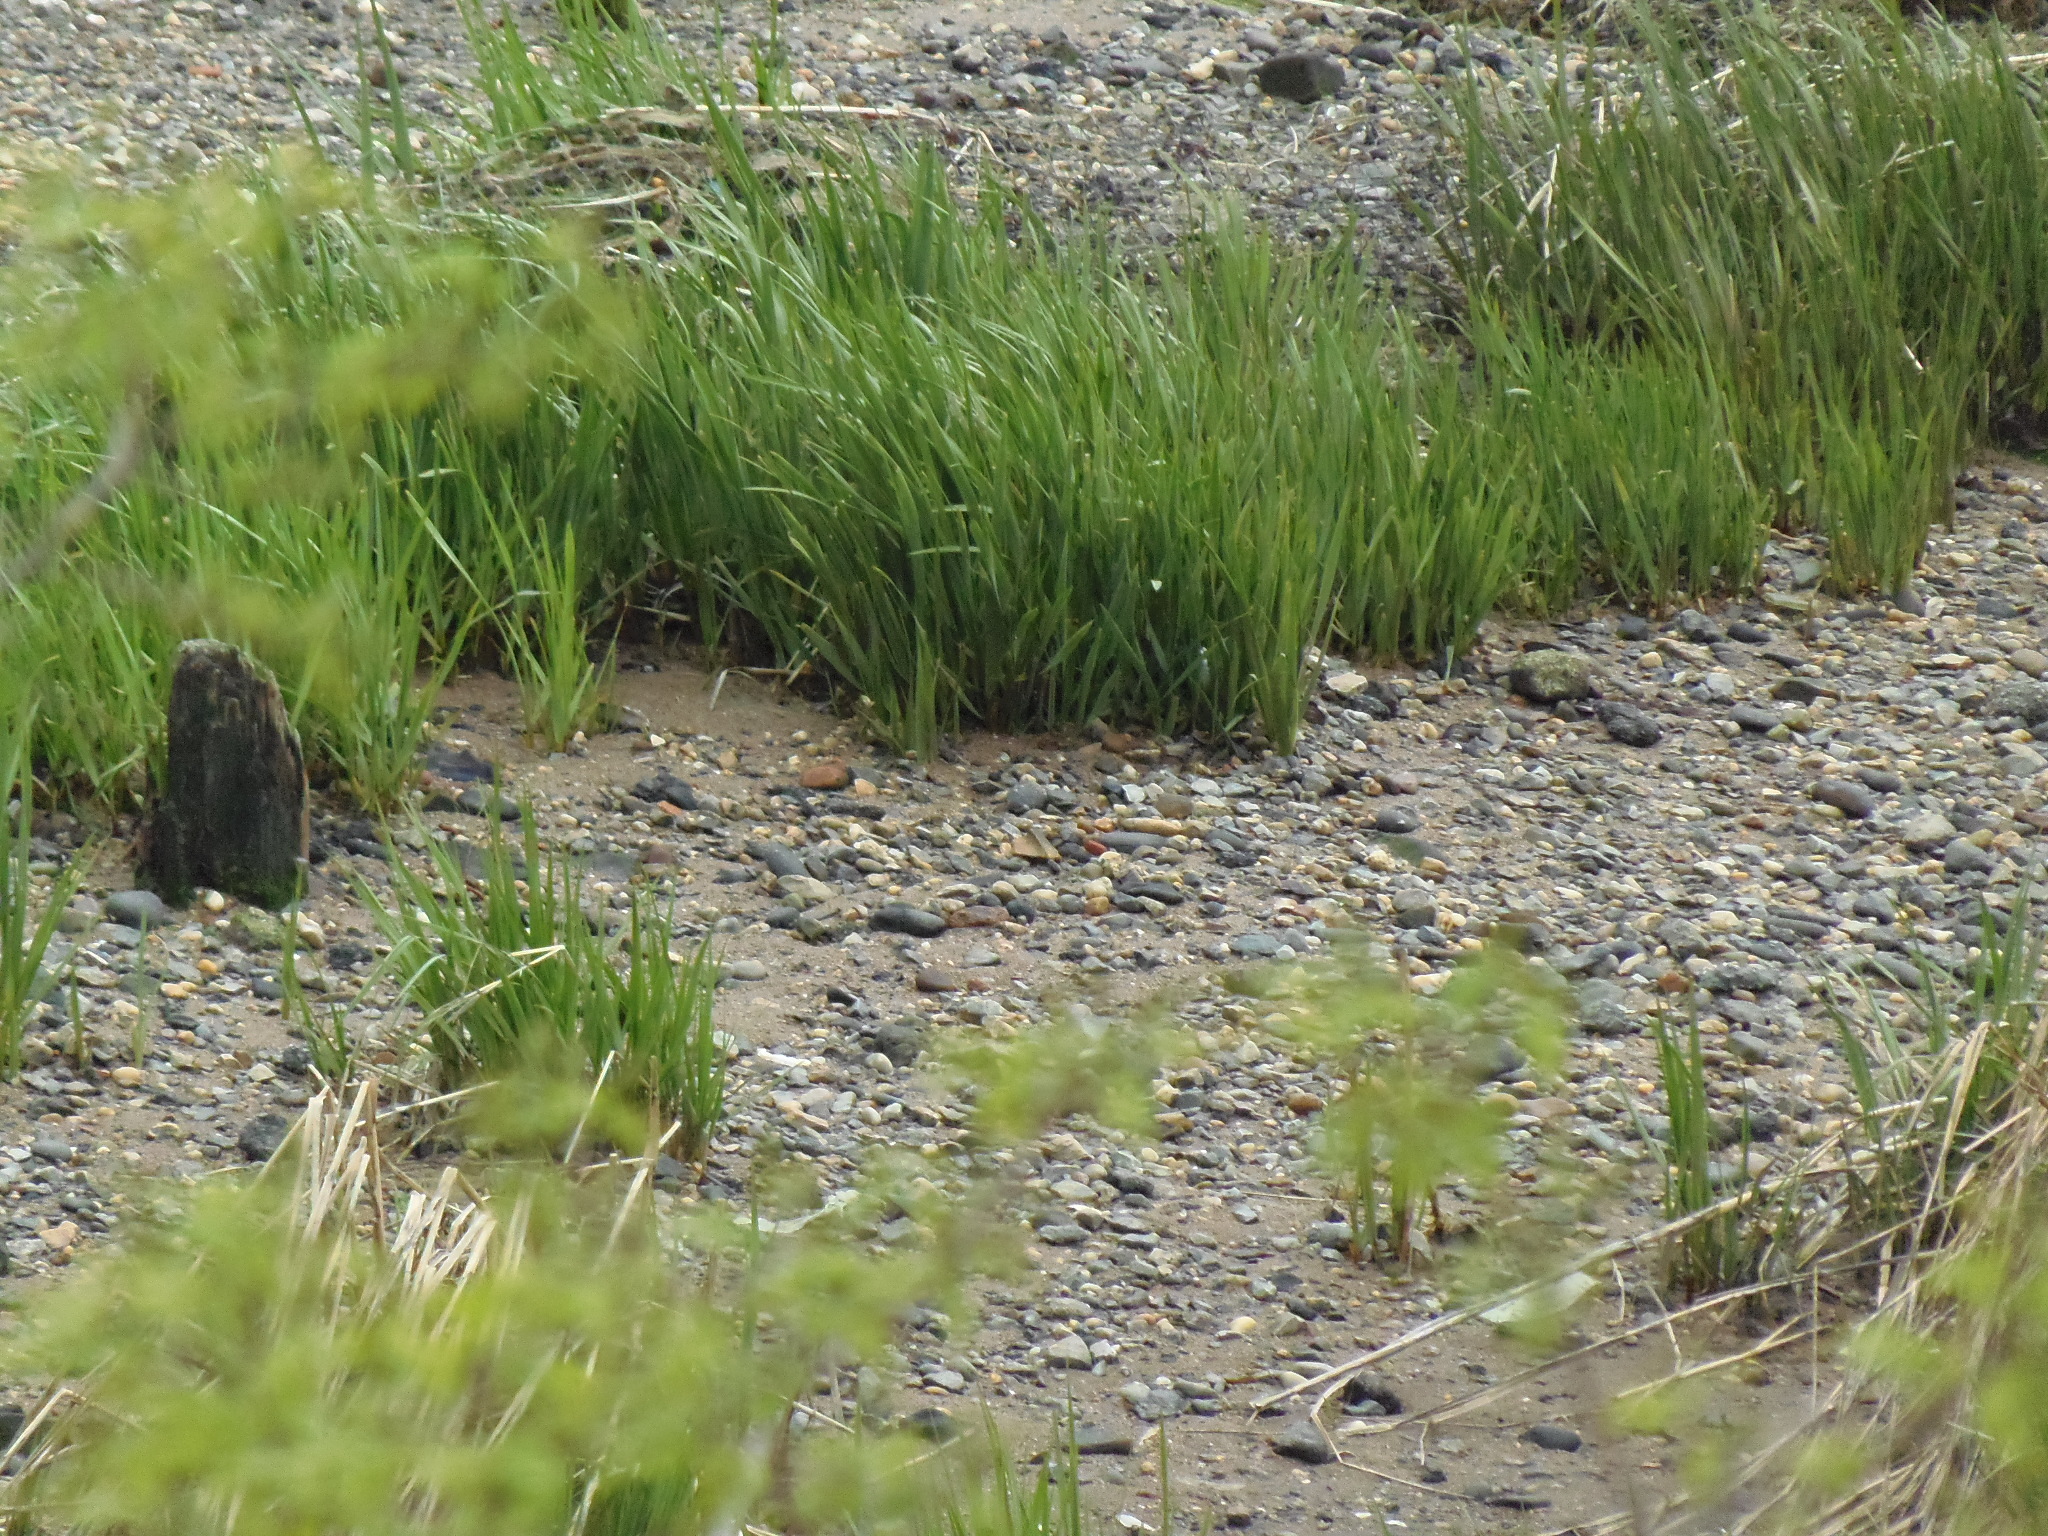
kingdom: Plantae
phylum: Tracheophyta
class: Liliopsida
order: Poales
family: Poaceae
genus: Sporobolus
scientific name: Sporobolus alterniflorus
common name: Atlantic cordgrass
